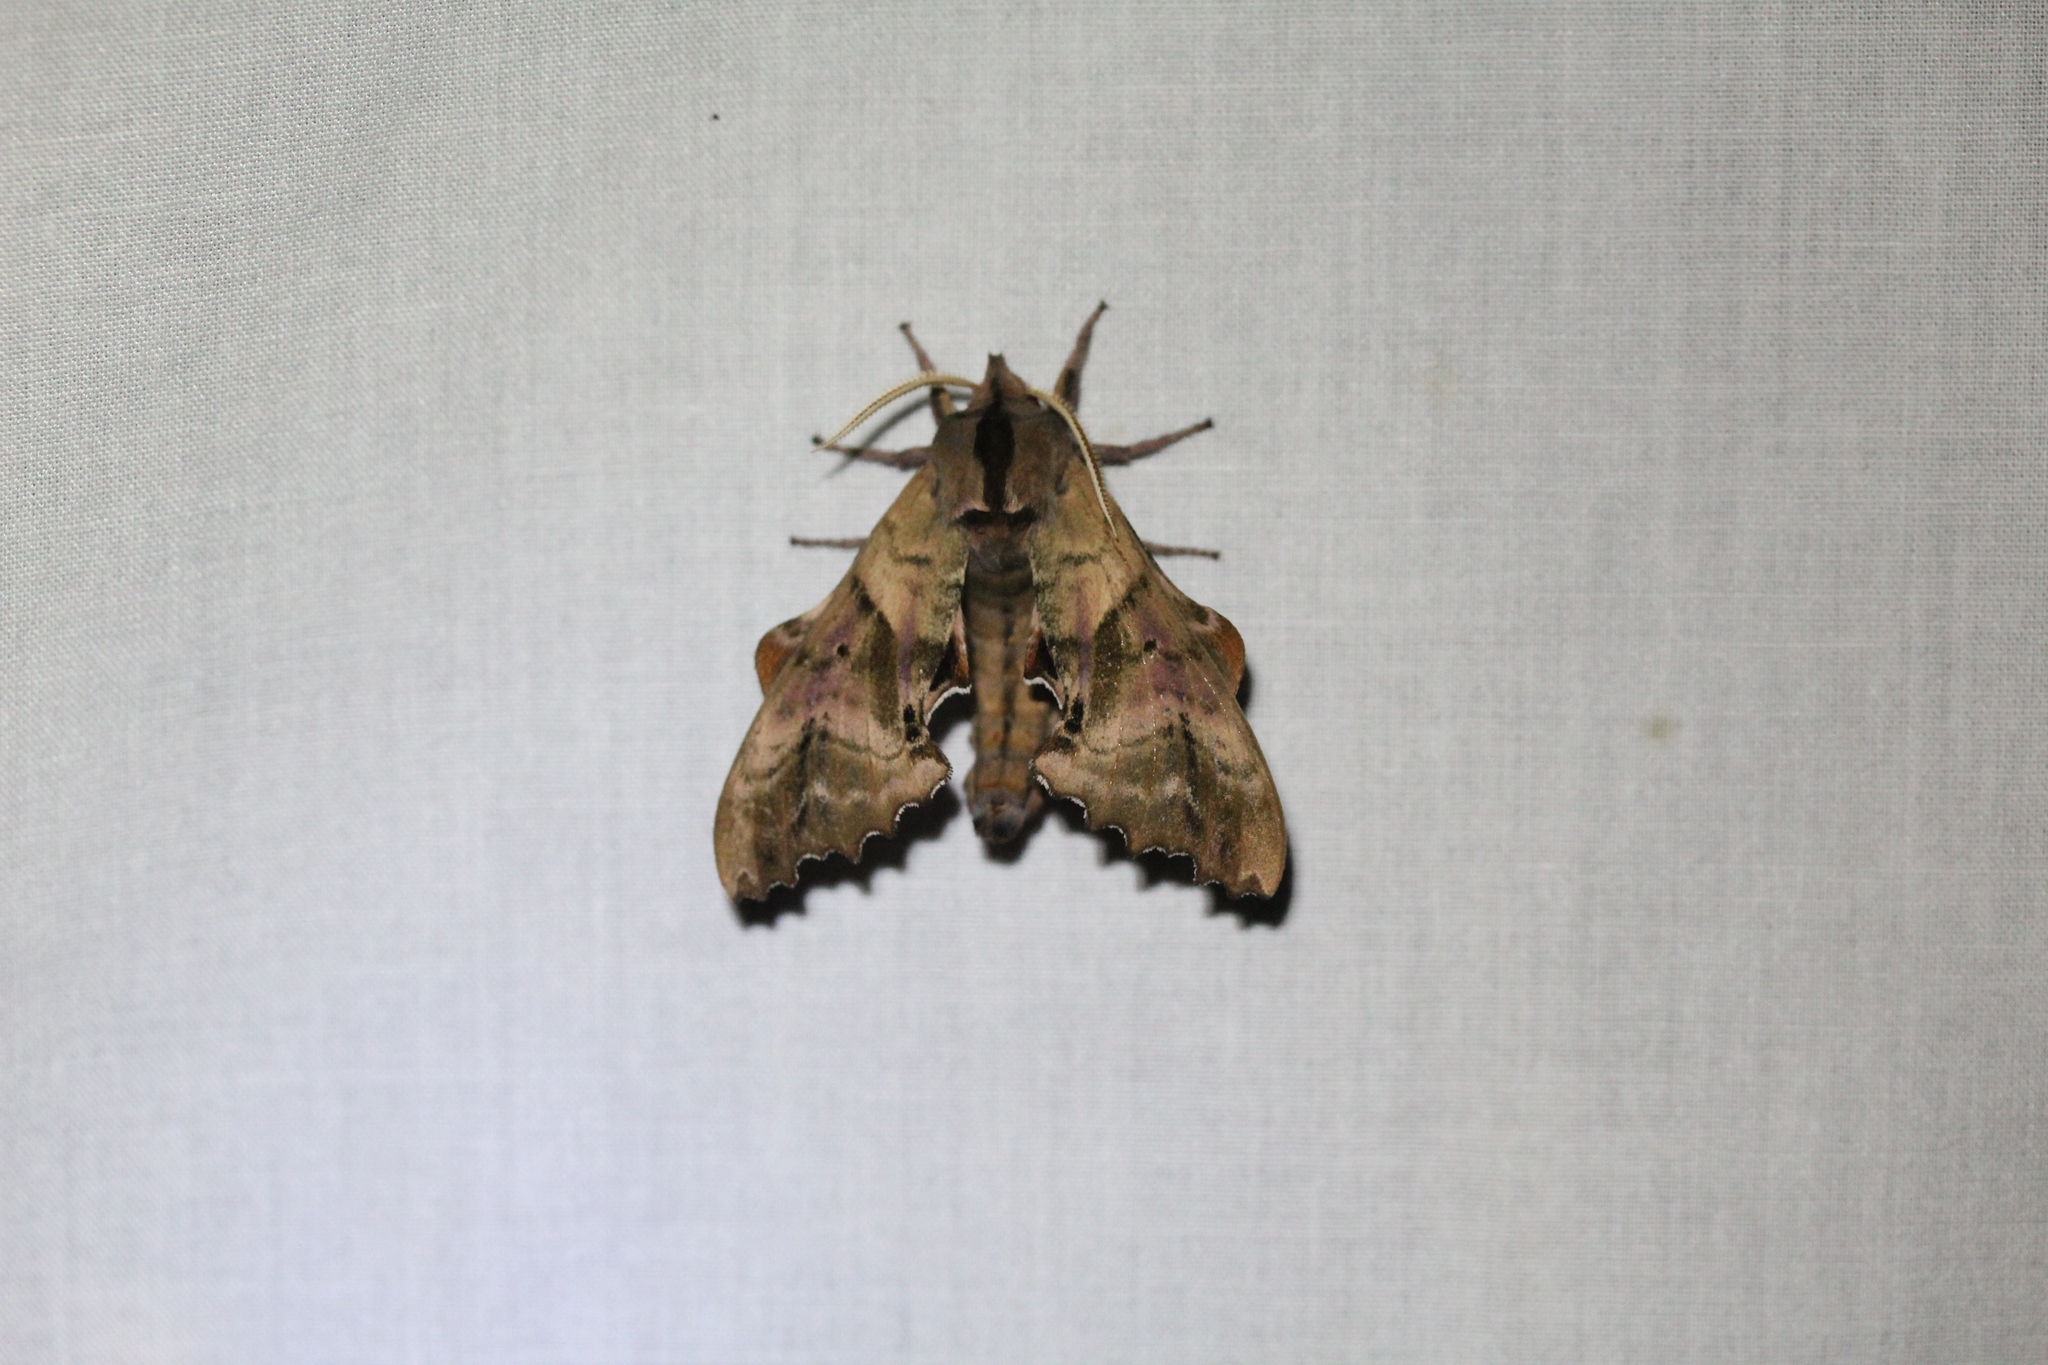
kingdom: Animalia
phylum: Arthropoda
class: Insecta
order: Lepidoptera
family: Sphingidae
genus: Paonias
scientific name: Paonias excaecata
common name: Blind-eyed sphinx
